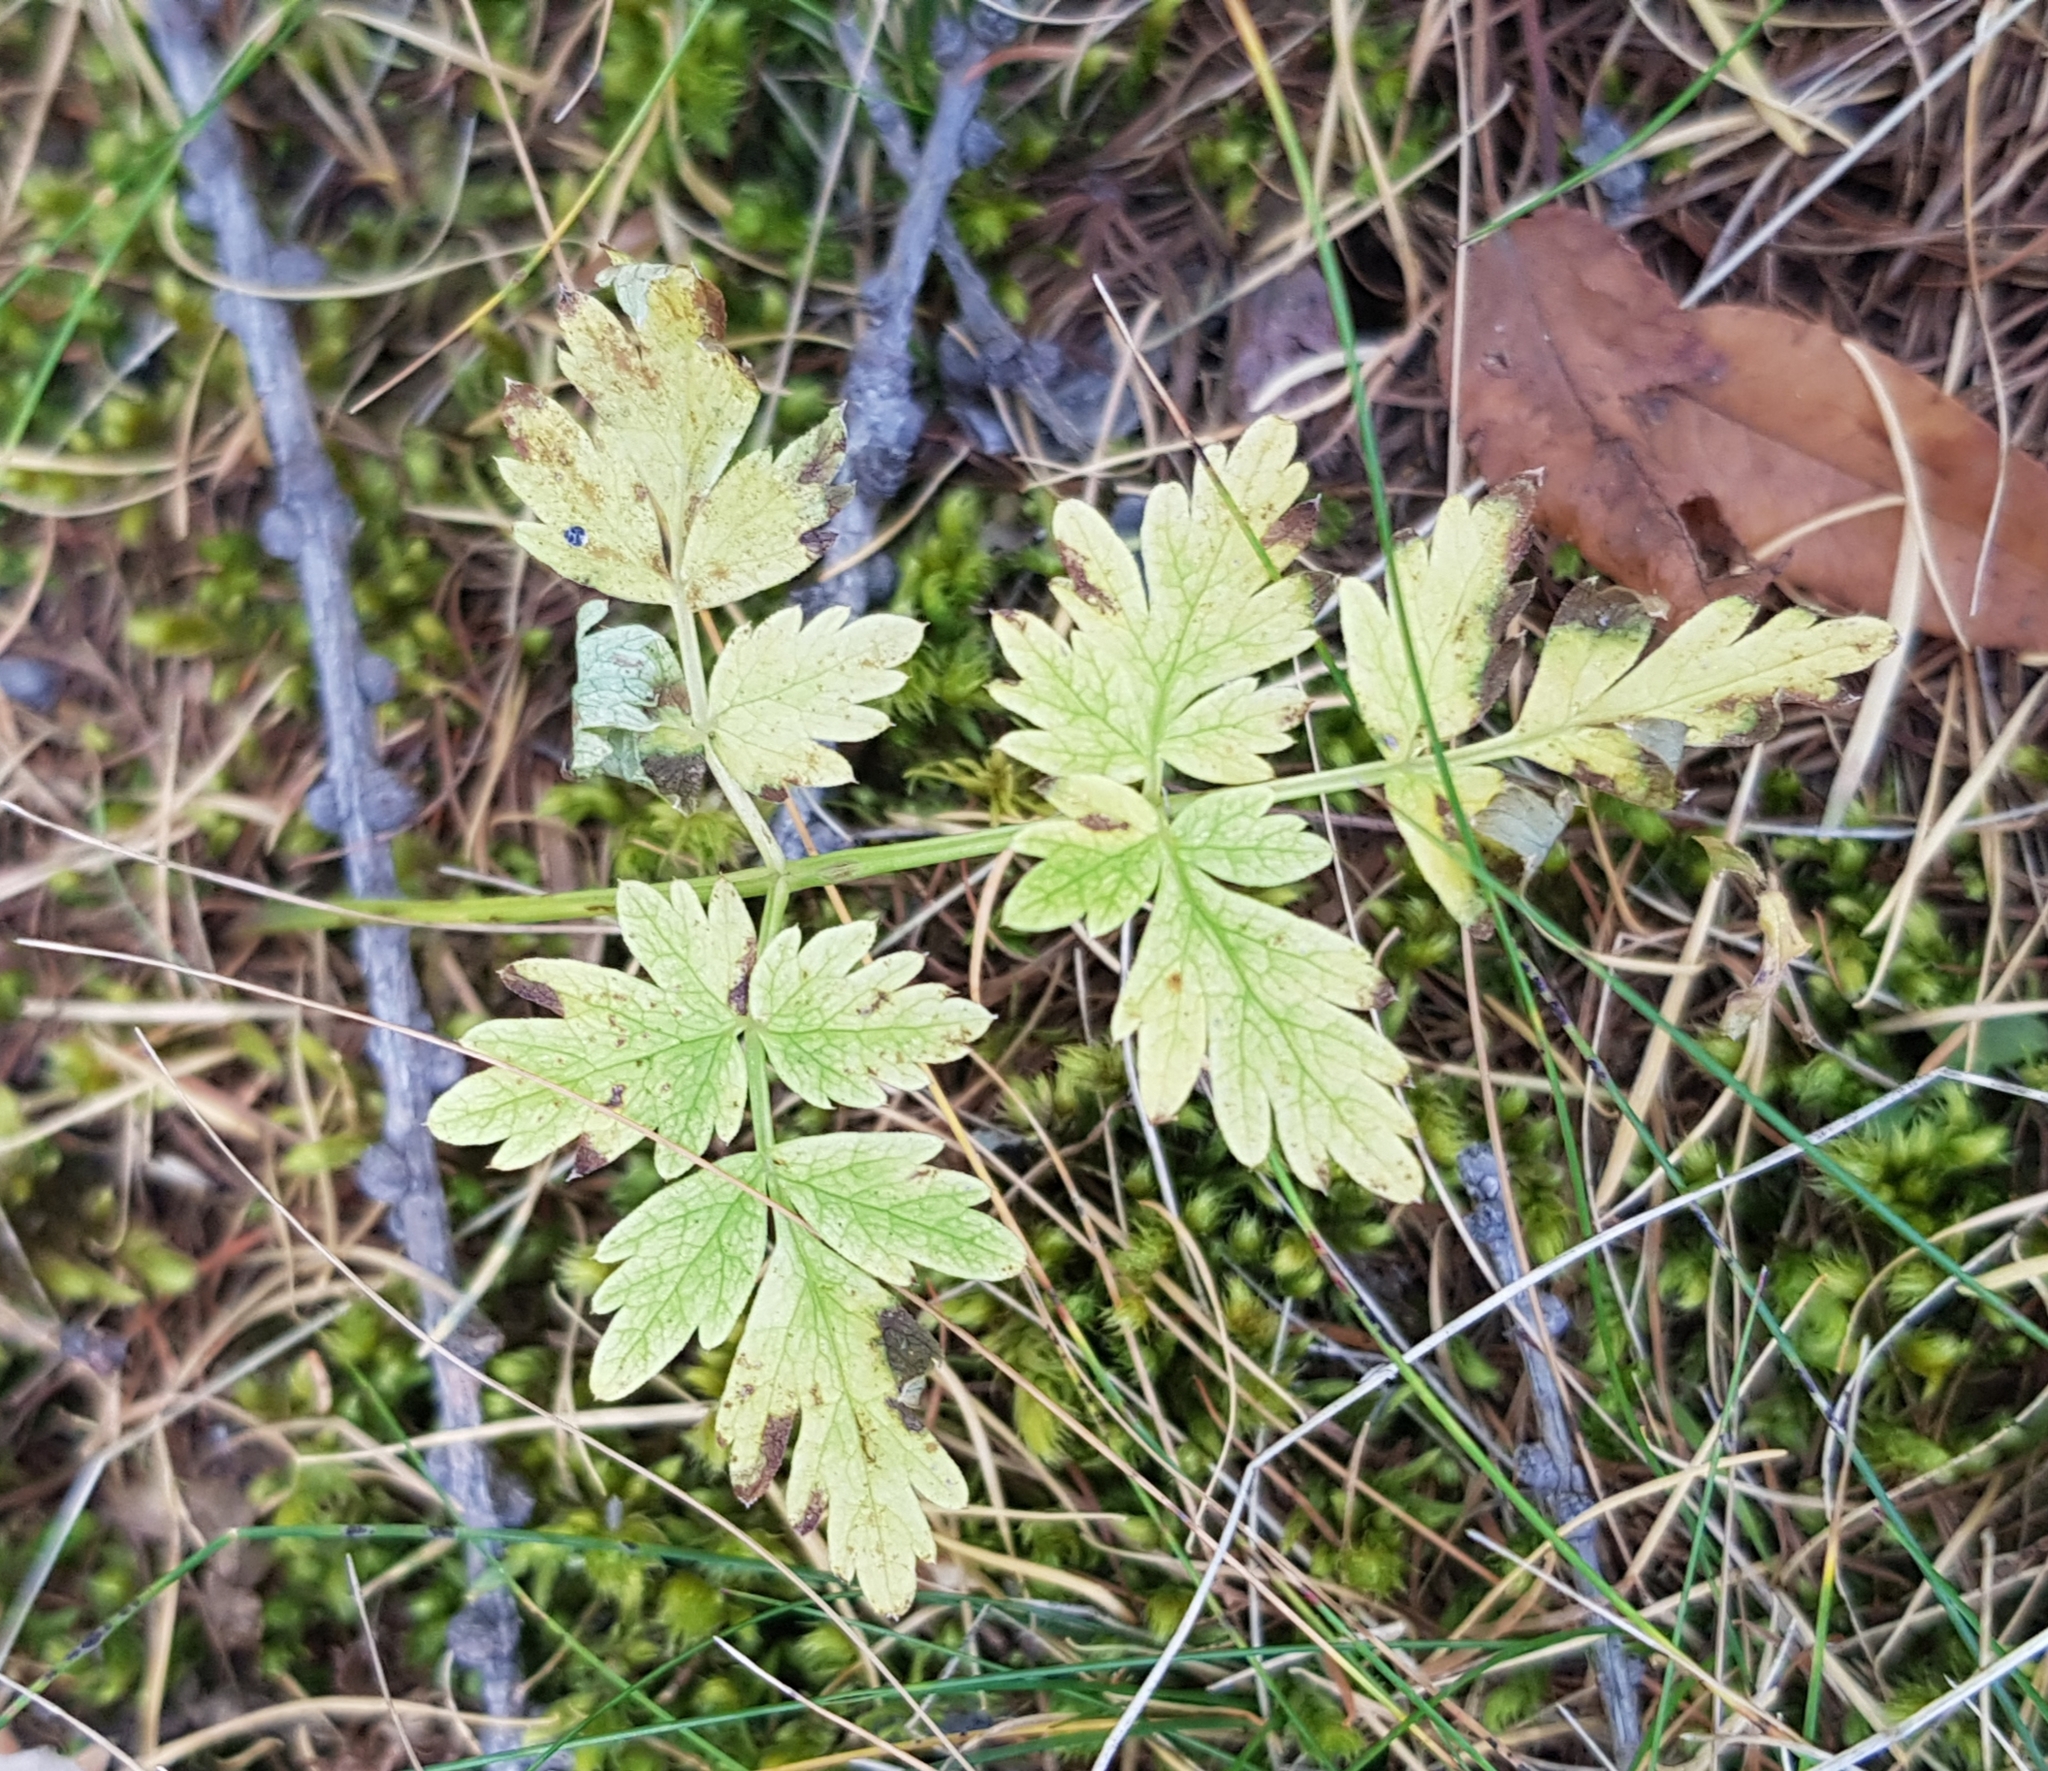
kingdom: Plantae
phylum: Tracheophyta
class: Magnoliopsida
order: Apiales
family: Apiaceae
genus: Aegopodium
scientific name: Aegopodium alpestre
